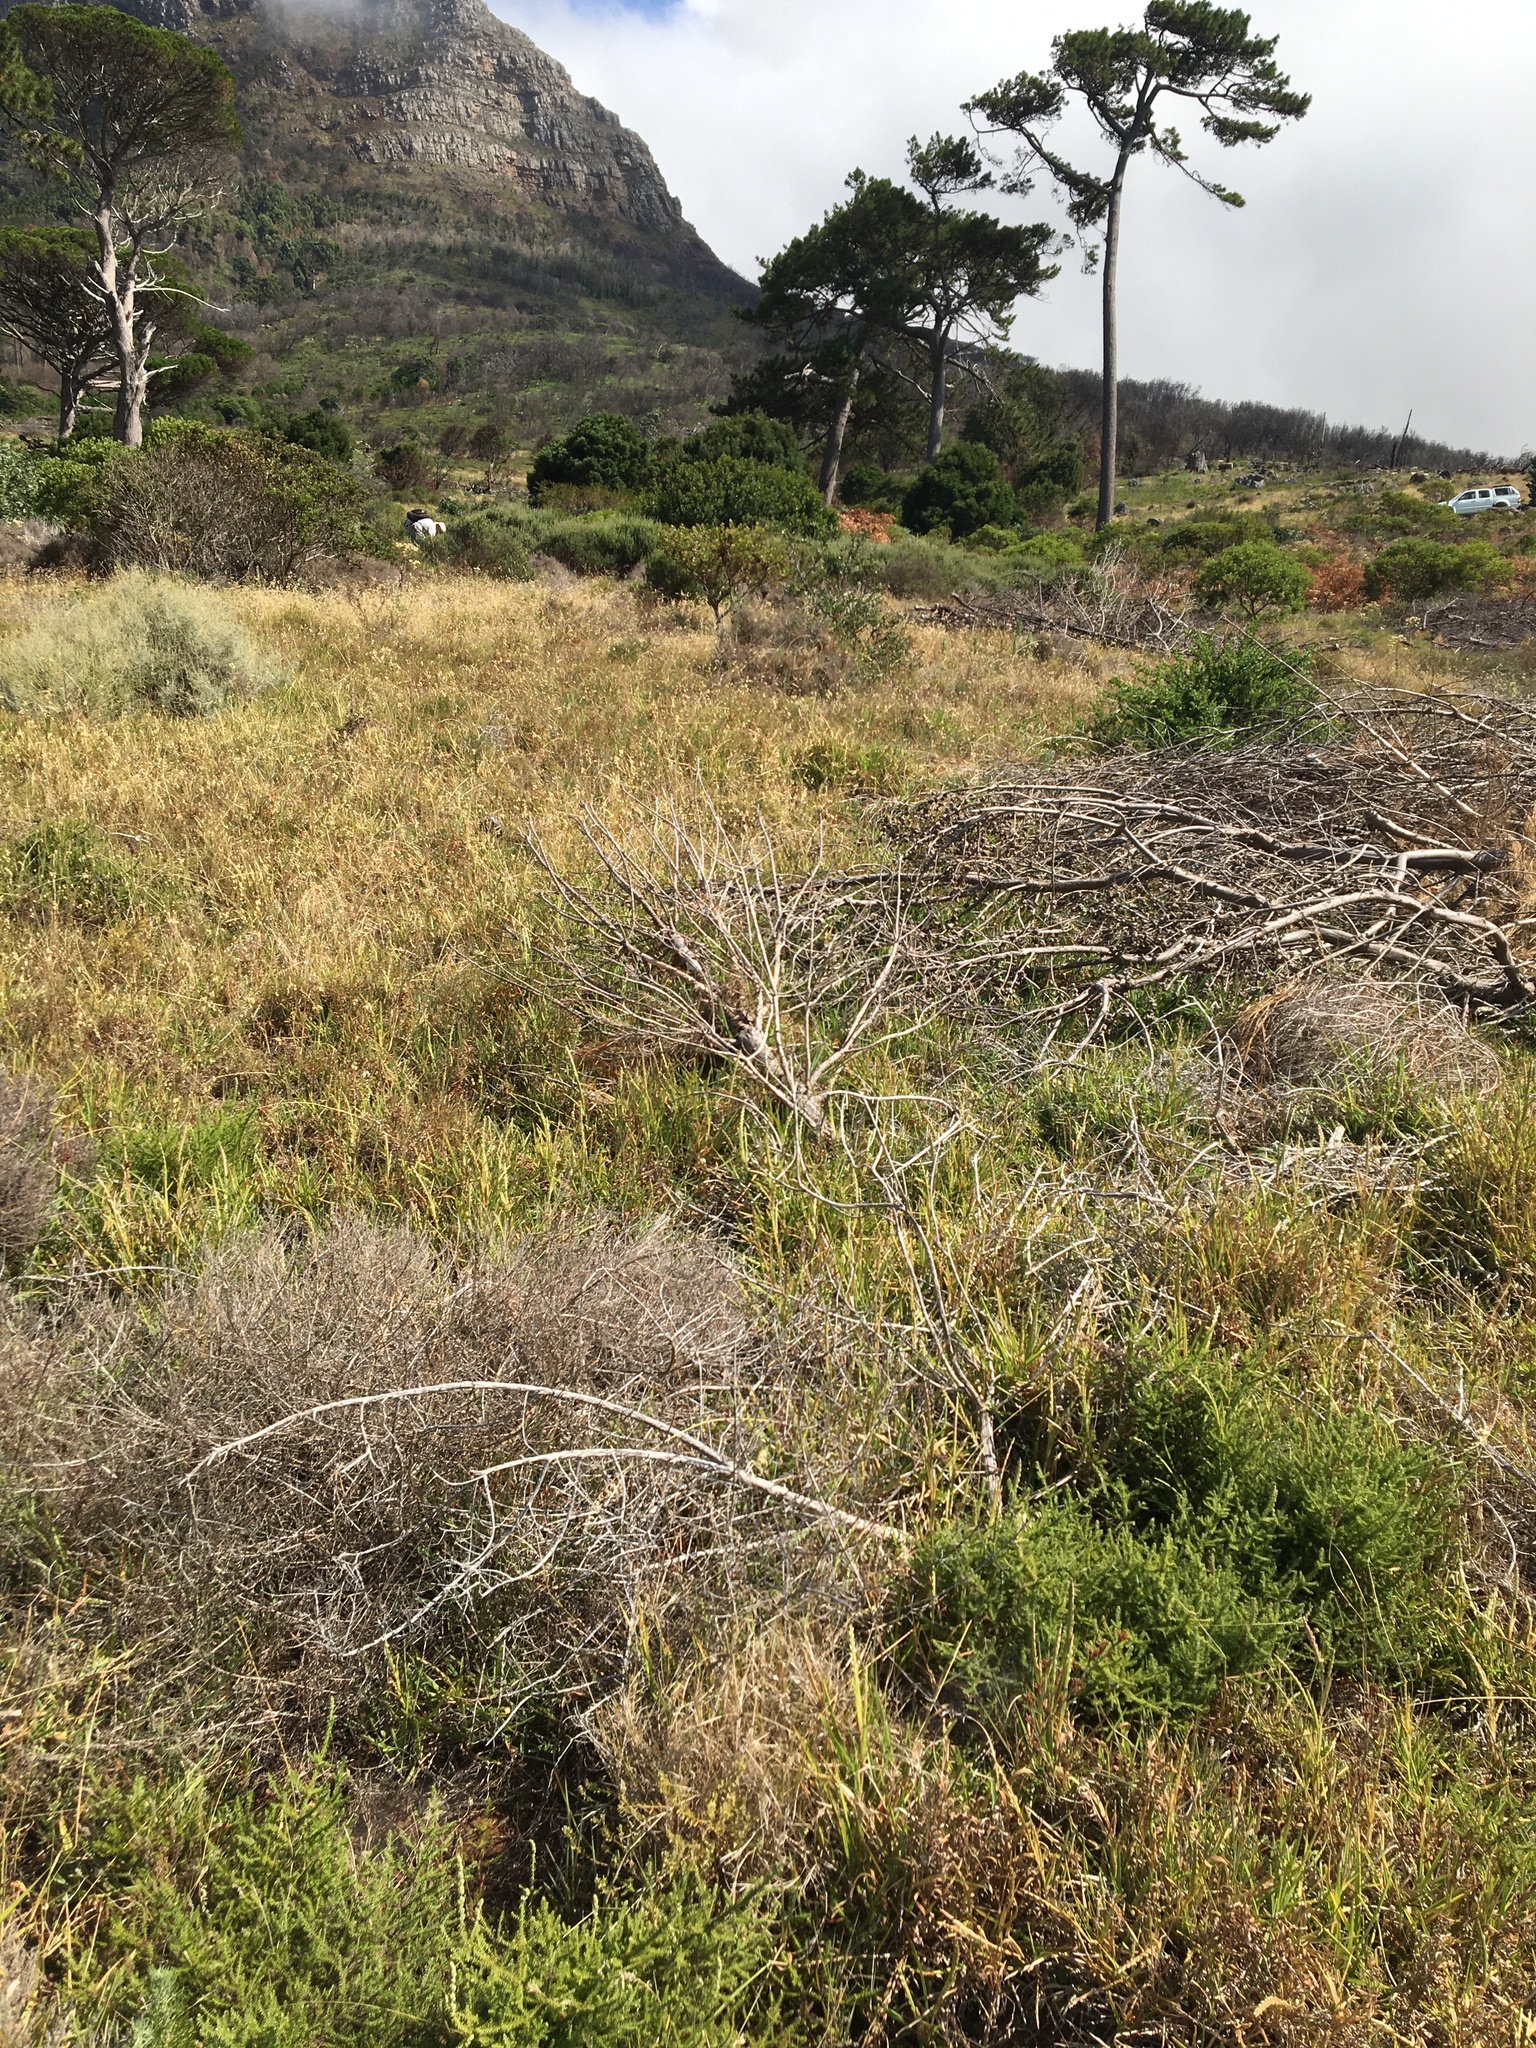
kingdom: Plantae
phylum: Tracheophyta
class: Magnoliopsida
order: Fabales
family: Fabaceae
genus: Aspalathus
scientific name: Aspalathus hispida
